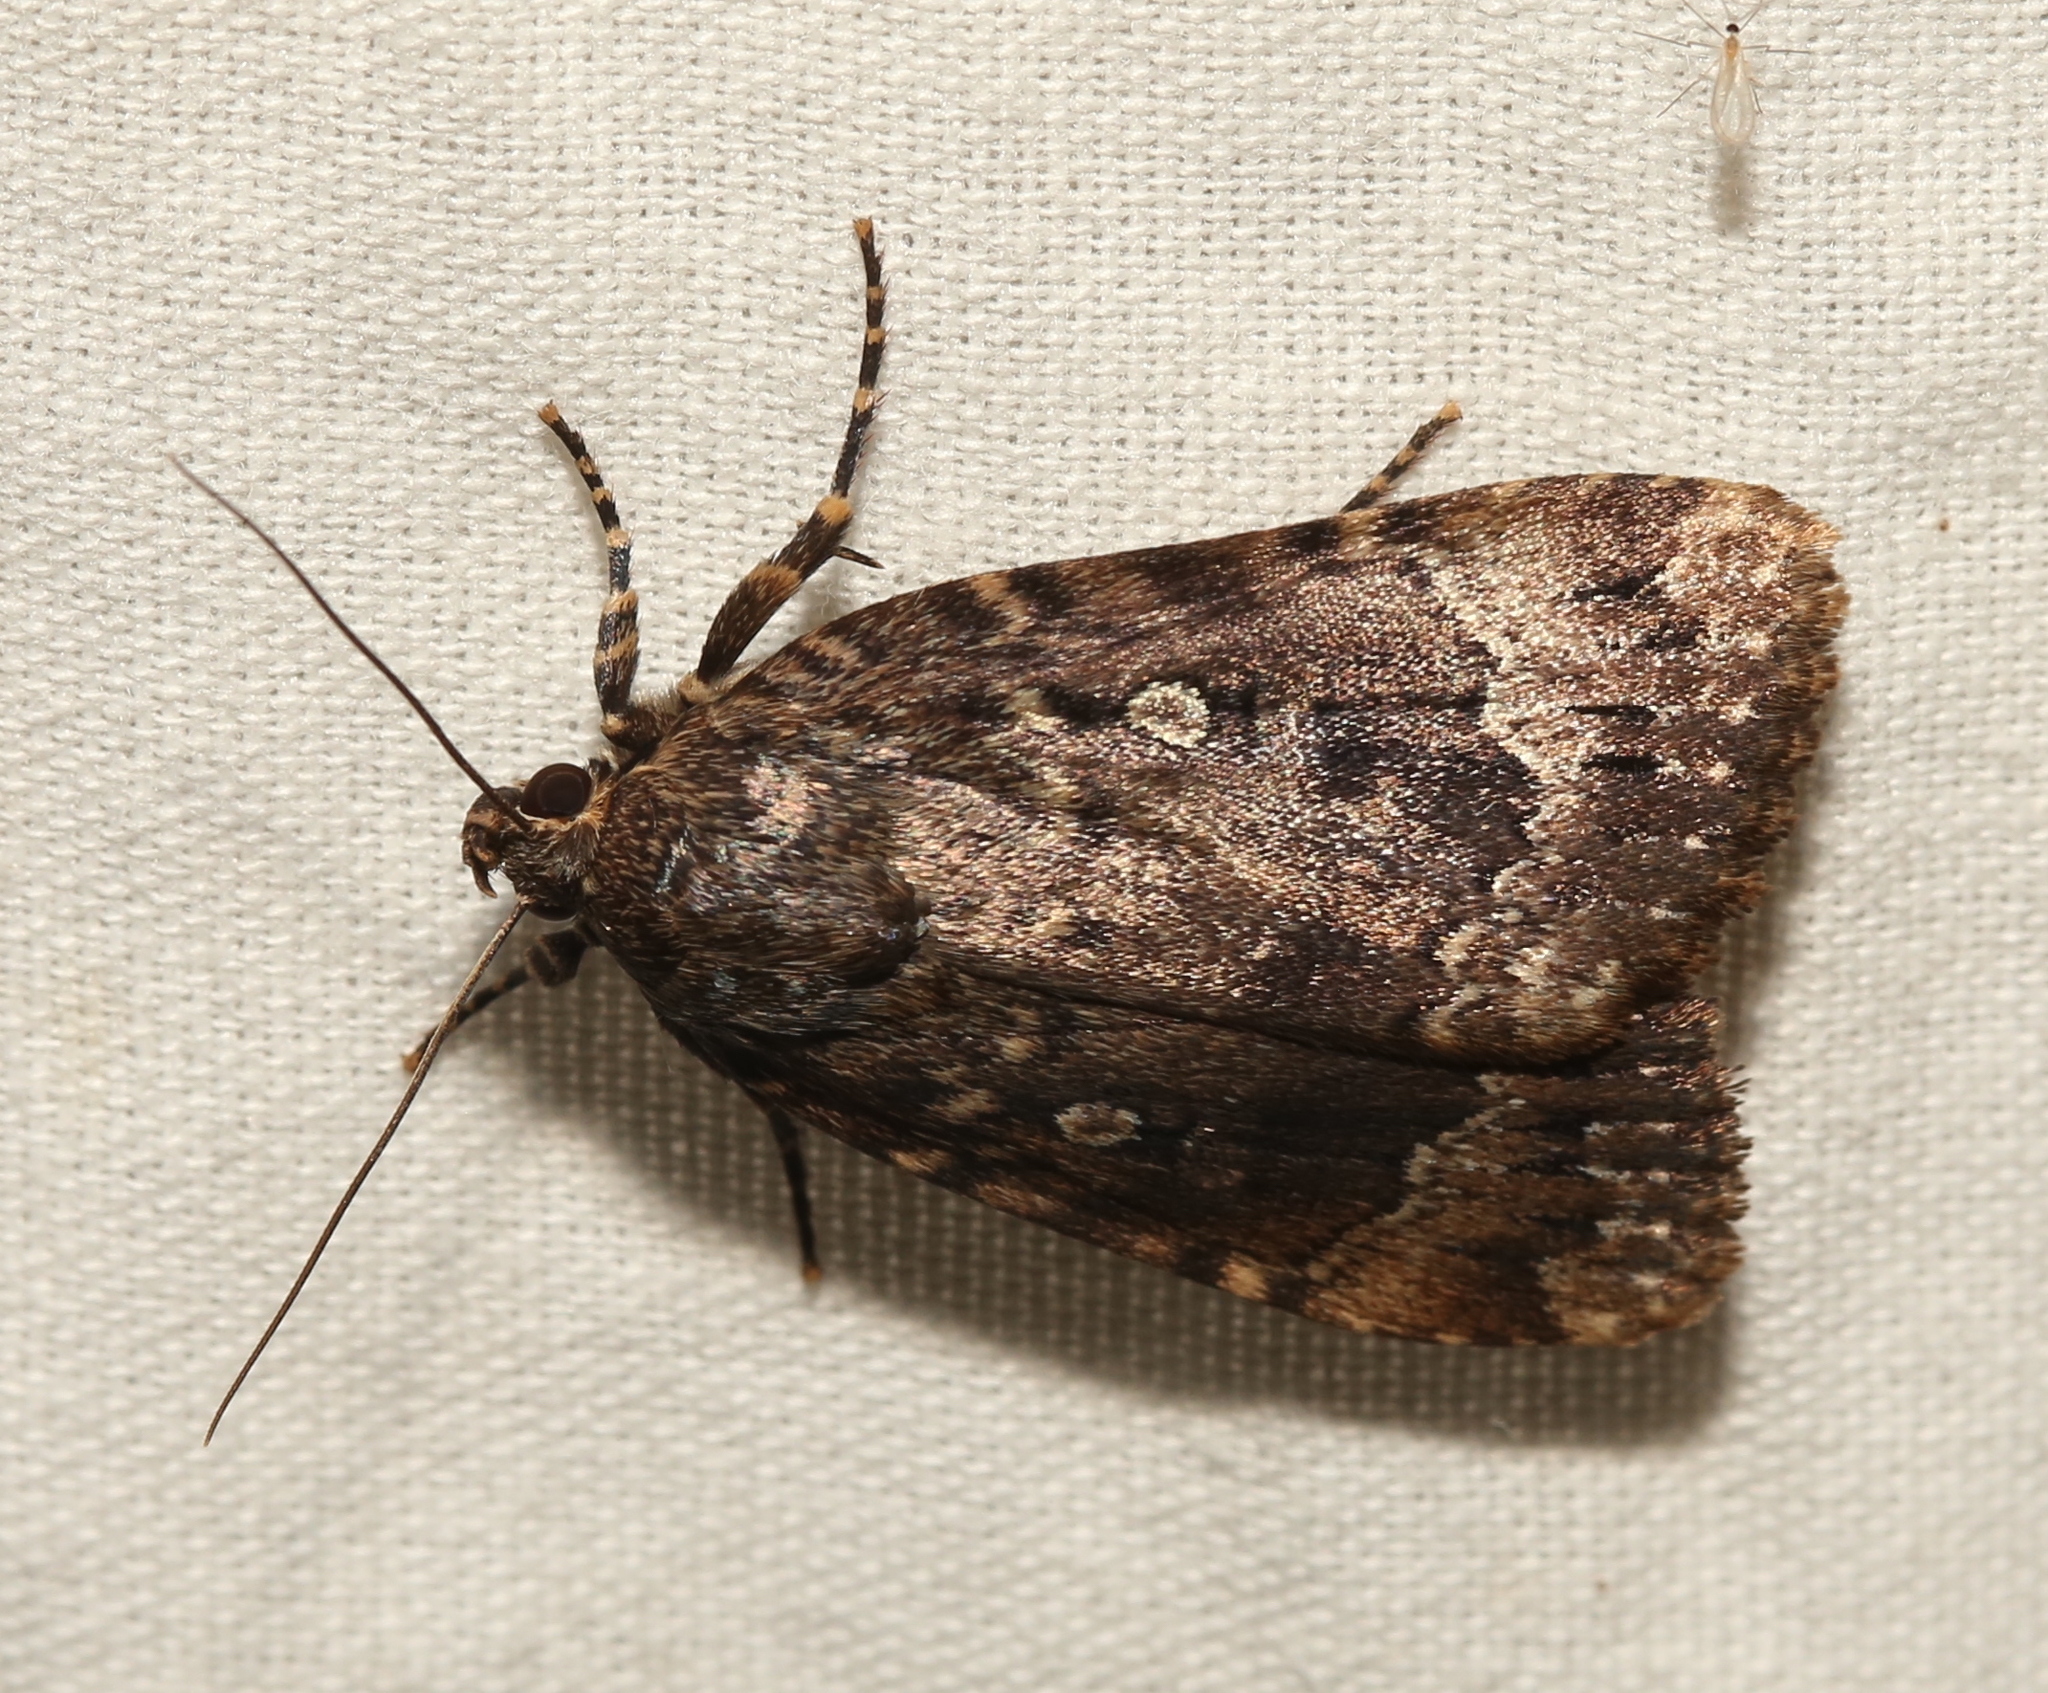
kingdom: Animalia
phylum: Arthropoda
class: Insecta
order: Lepidoptera
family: Noctuidae
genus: Amphipyra
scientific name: Amphipyra pyramidoides
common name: American copper underwing
